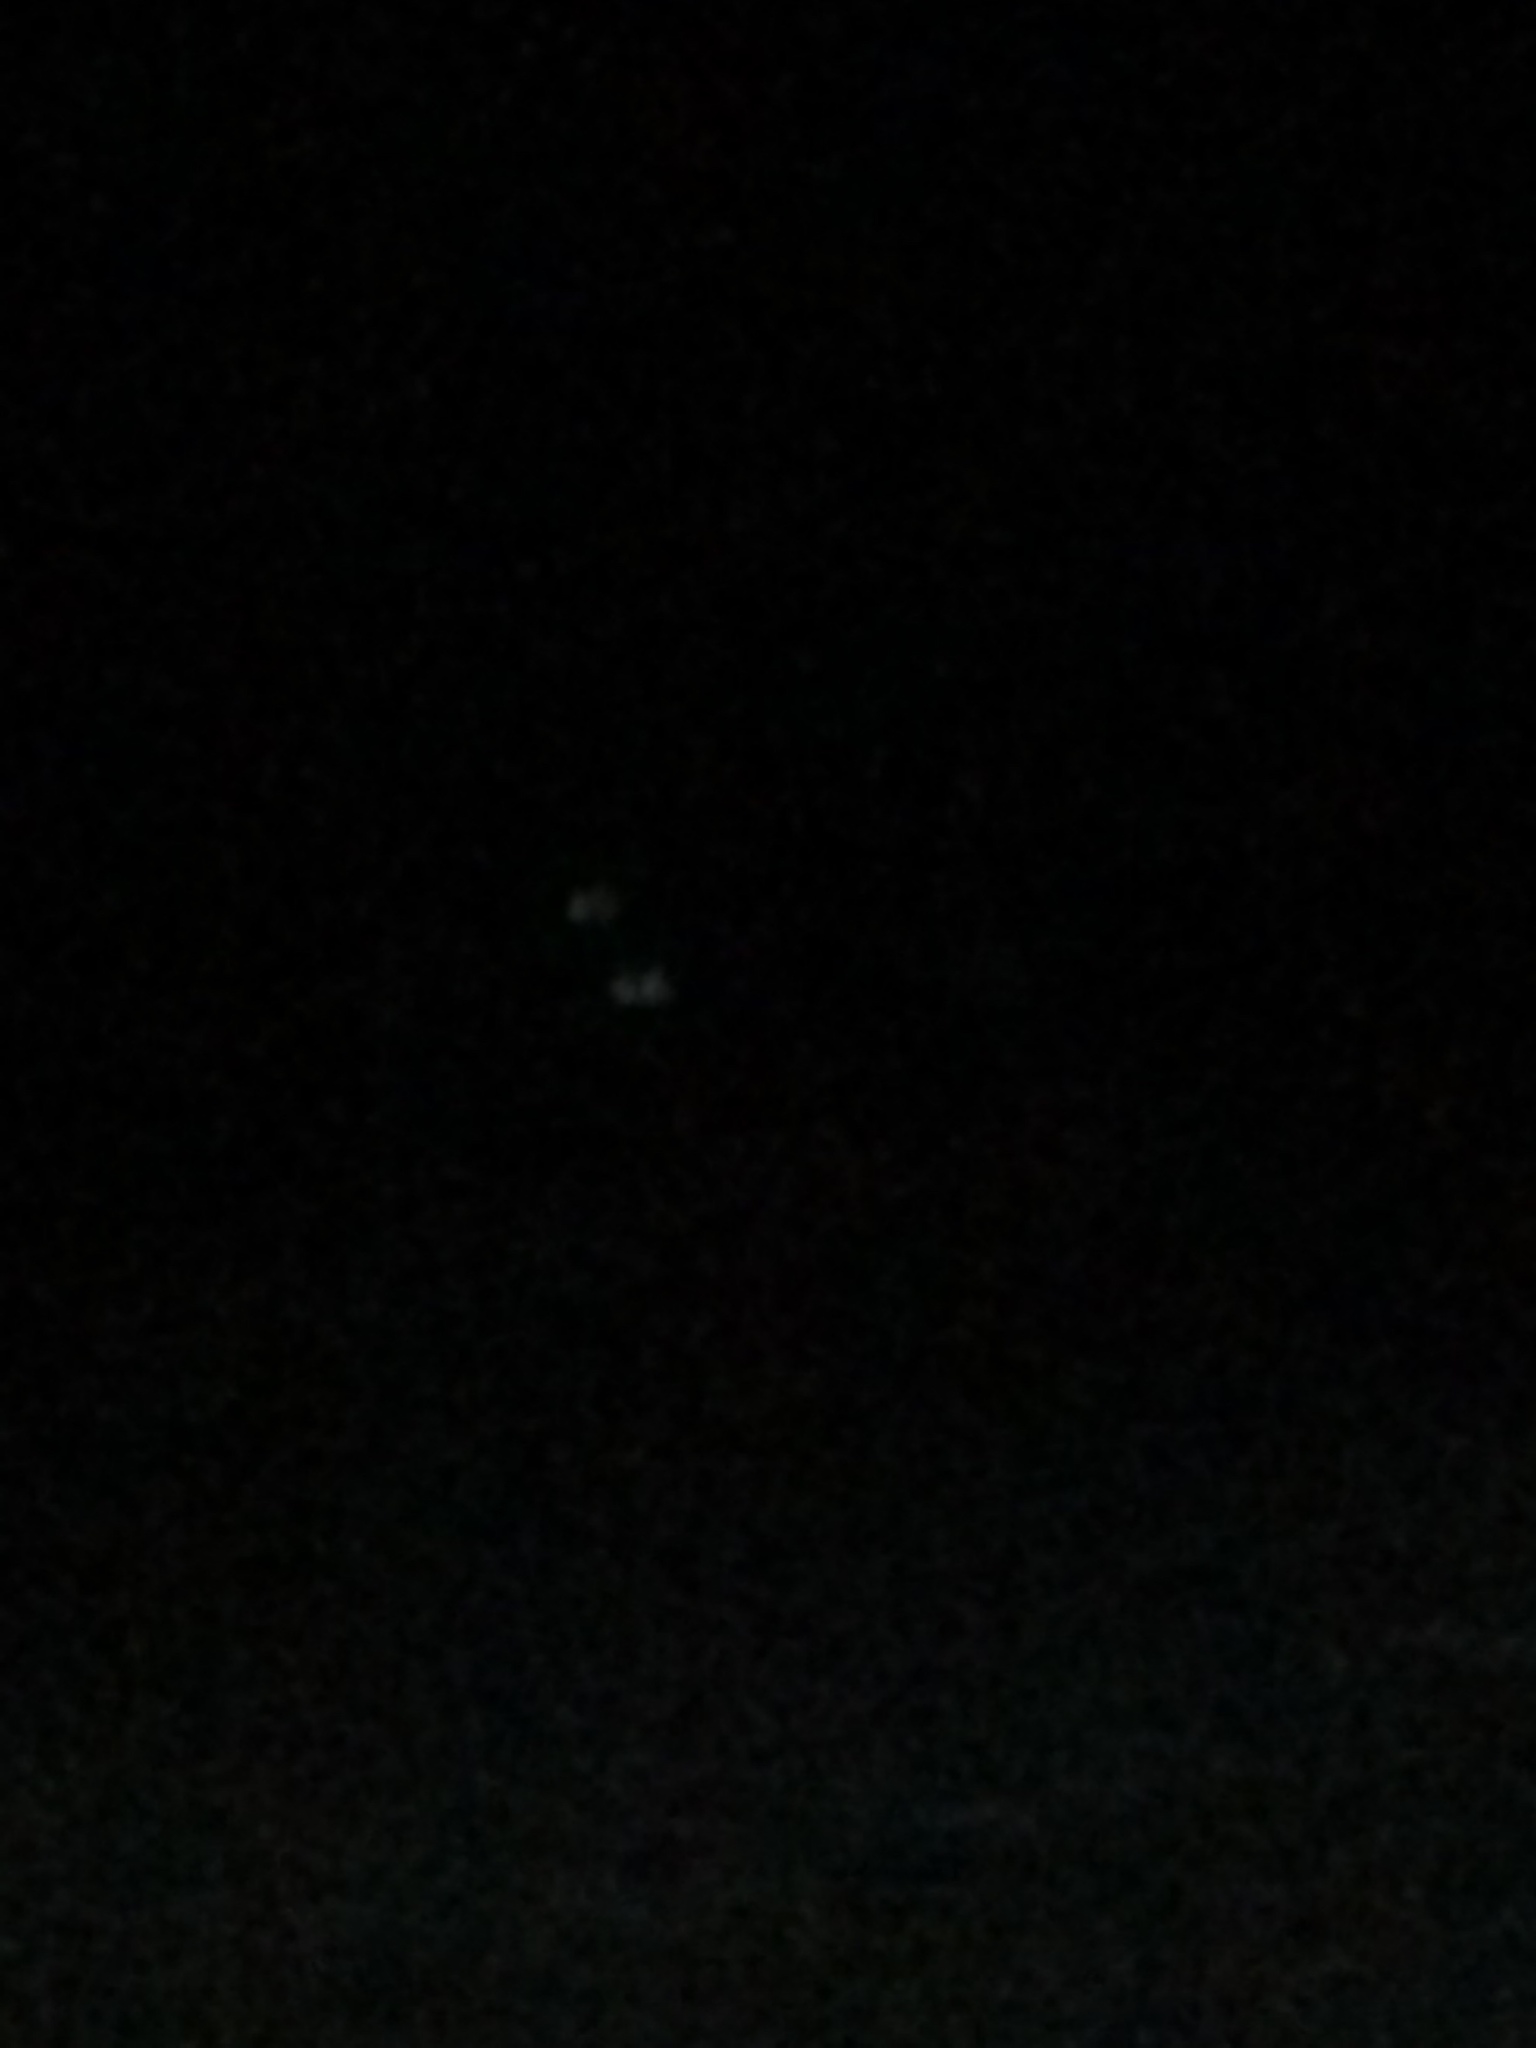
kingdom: Animalia
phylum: Chordata
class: Mammalia
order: Artiodactyla
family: Cervidae
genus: Odocoileus
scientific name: Odocoileus virginianus
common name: White-tailed deer
